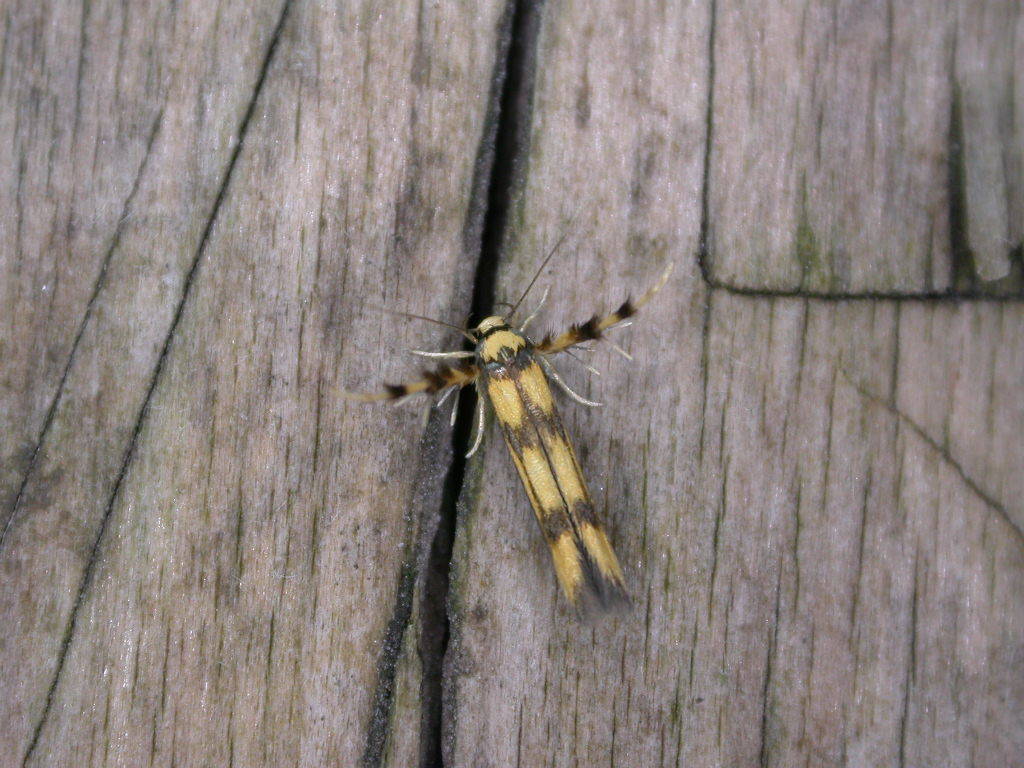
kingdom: Animalia
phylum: Arthropoda
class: Insecta
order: Lepidoptera
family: Stathmopodidae
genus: Stathmopoda
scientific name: Stathmopoda pedella
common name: Alder signal
